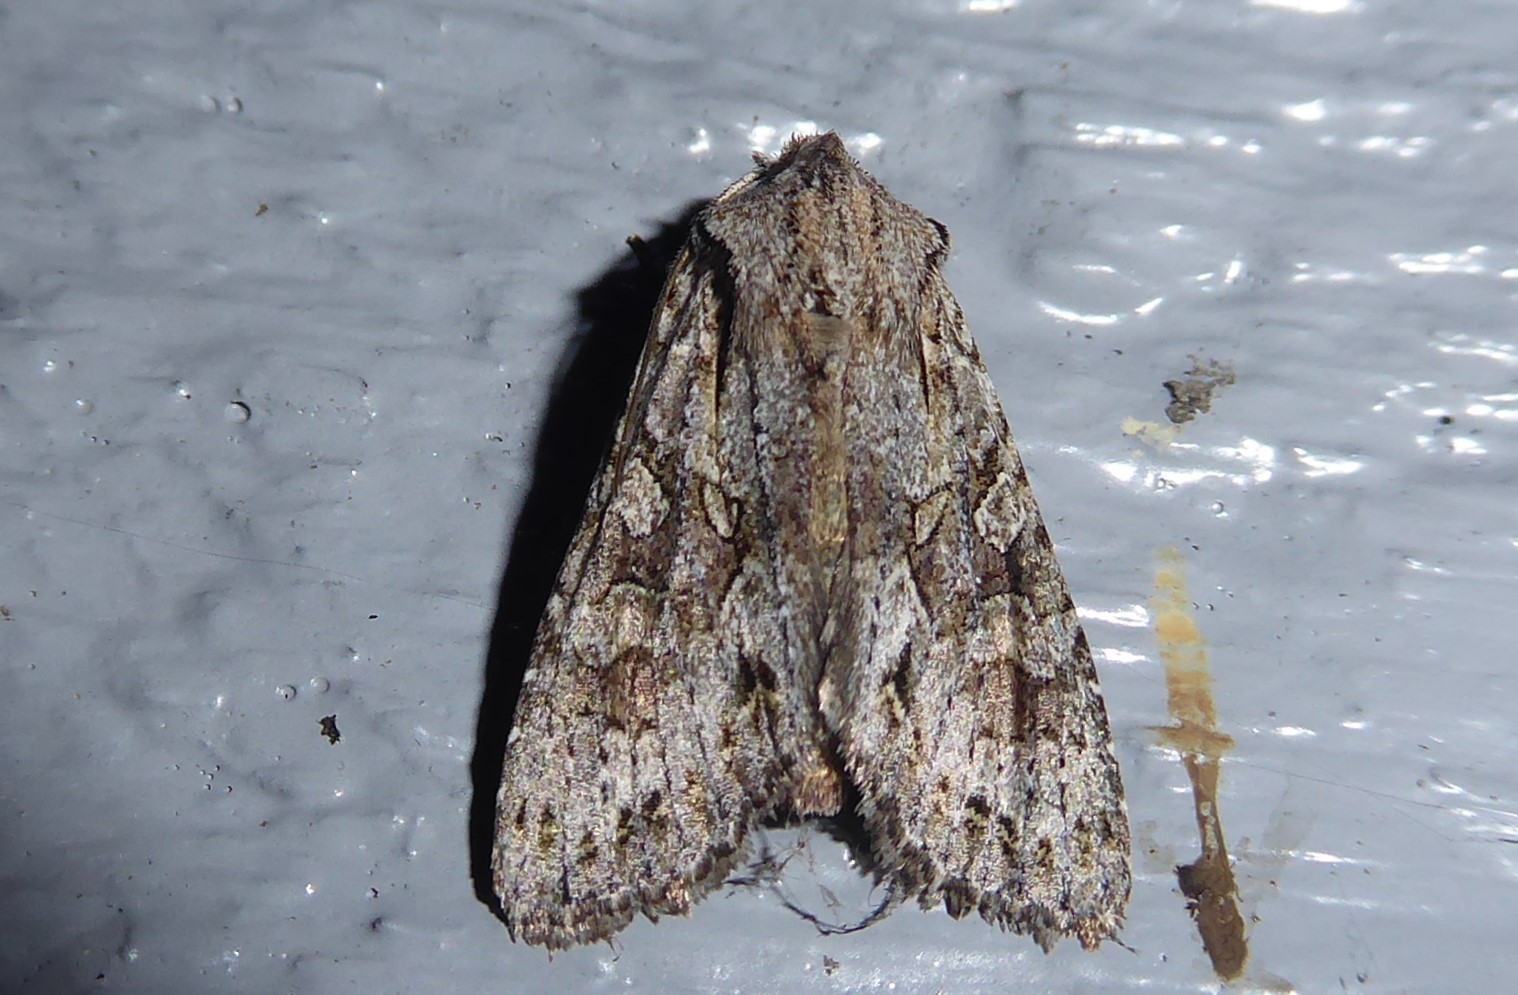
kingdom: Animalia
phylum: Arthropoda
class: Insecta
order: Lepidoptera
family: Noctuidae
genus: Ichneutica
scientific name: Ichneutica mutans
